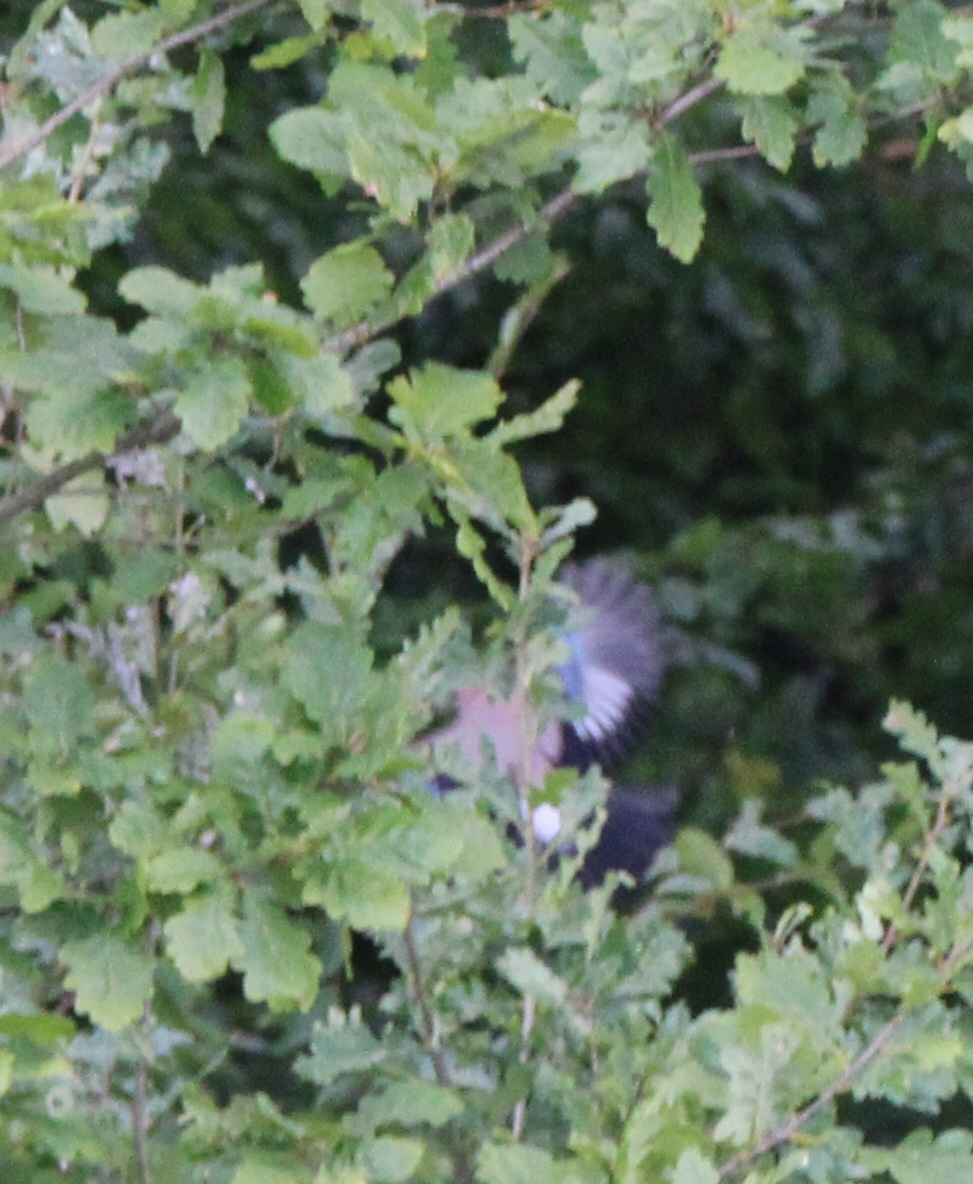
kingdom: Animalia
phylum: Chordata
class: Aves
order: Passeriformes
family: Corvidae
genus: Garrulus
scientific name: Garrulus glandarius
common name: Eurasian jay
